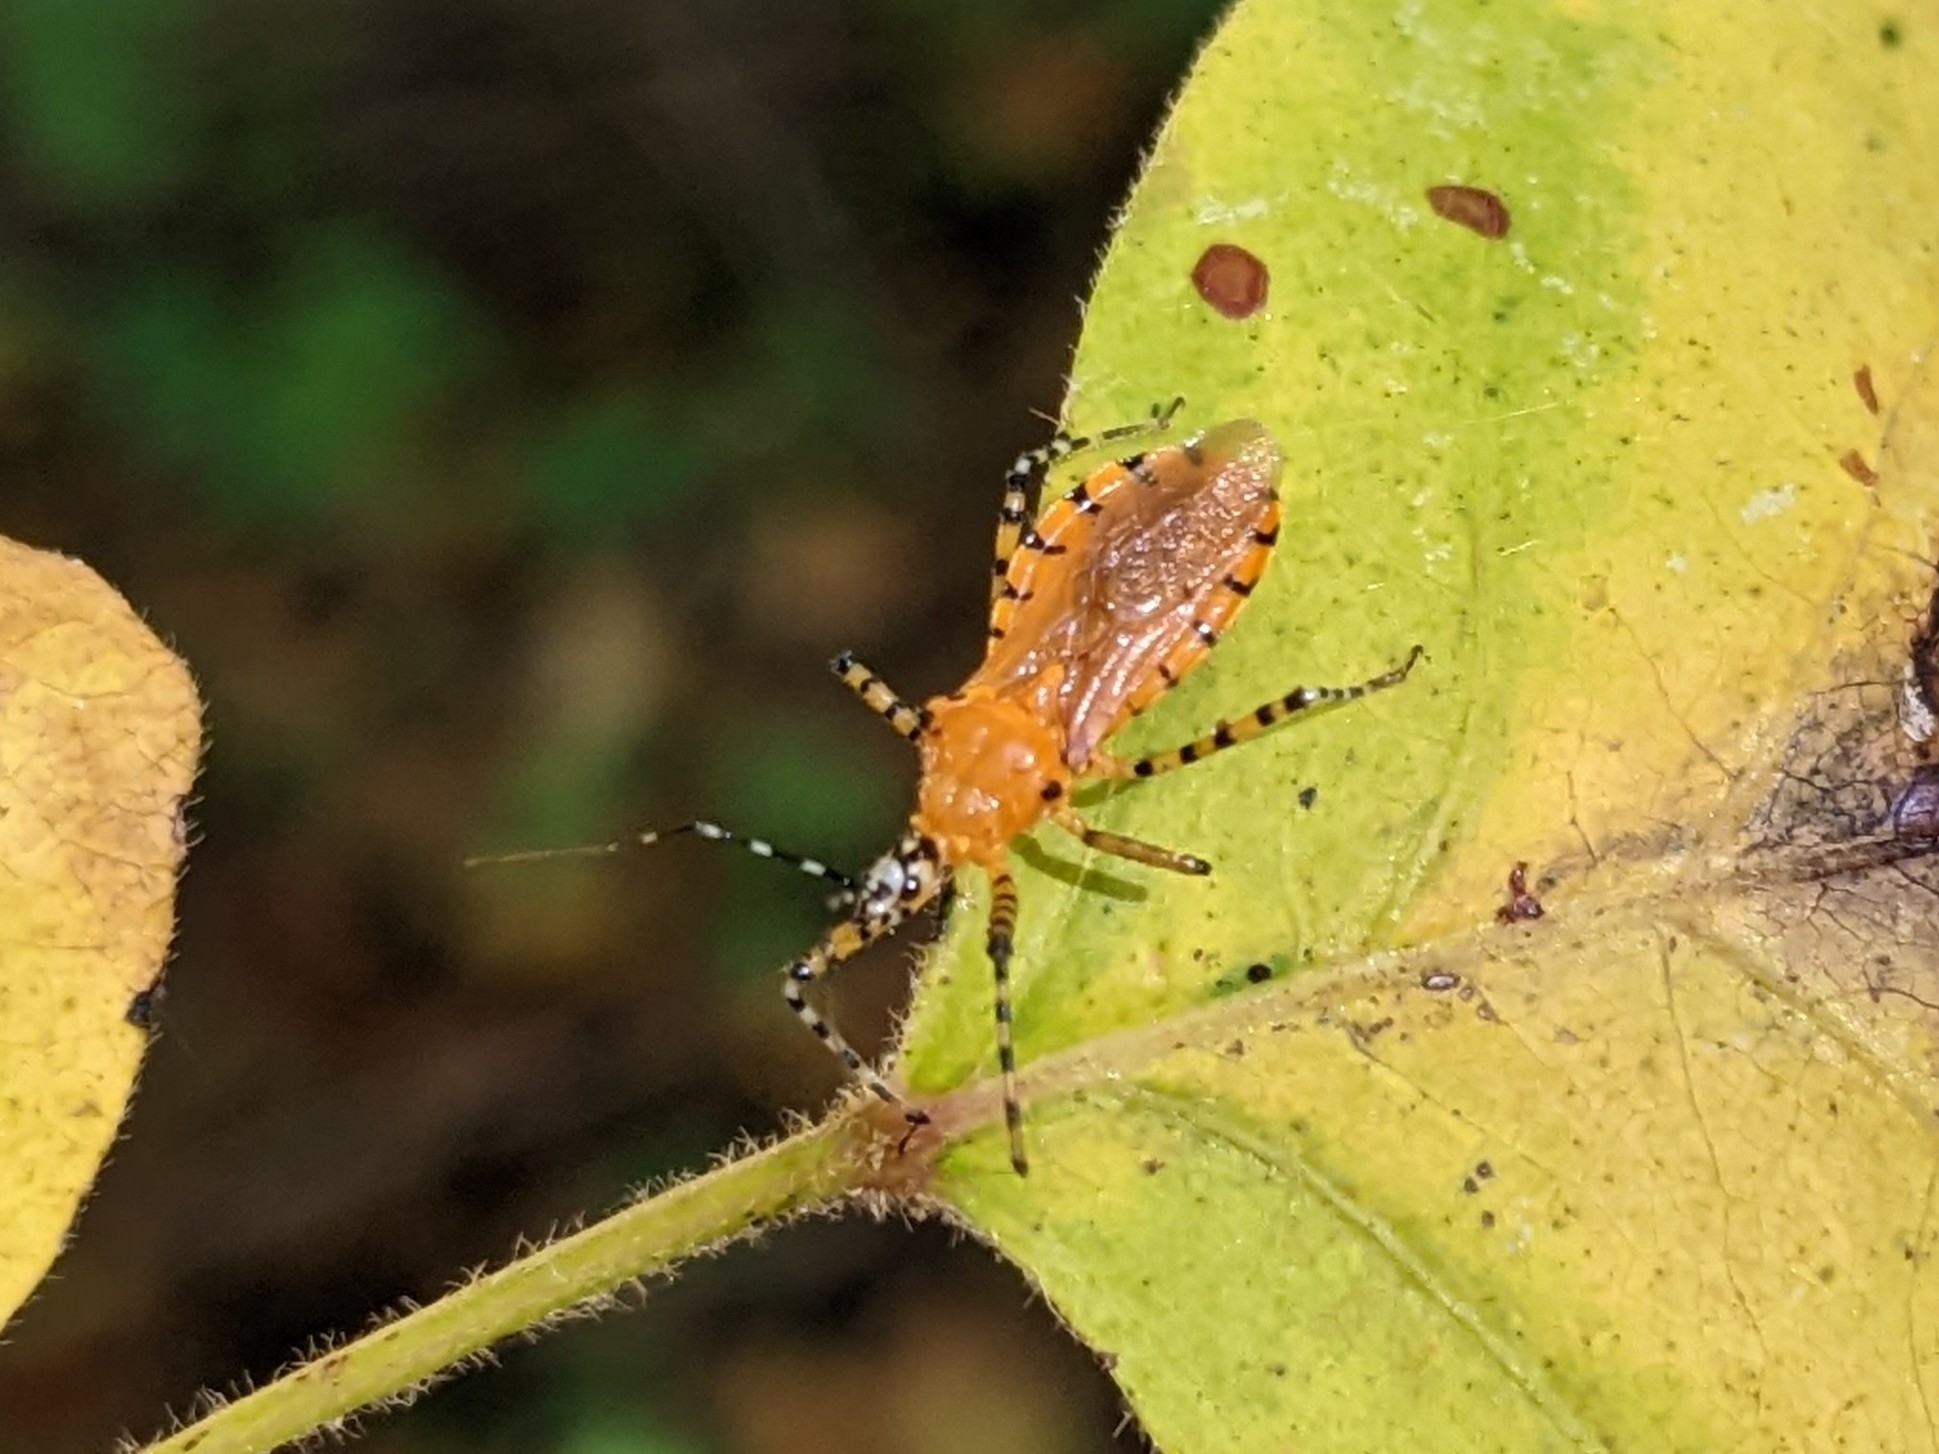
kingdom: Animalia
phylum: Arthropoda
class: Insecta
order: Hemiptera
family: Reduviidae
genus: Pselliopus
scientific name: Pselliopus barberi
